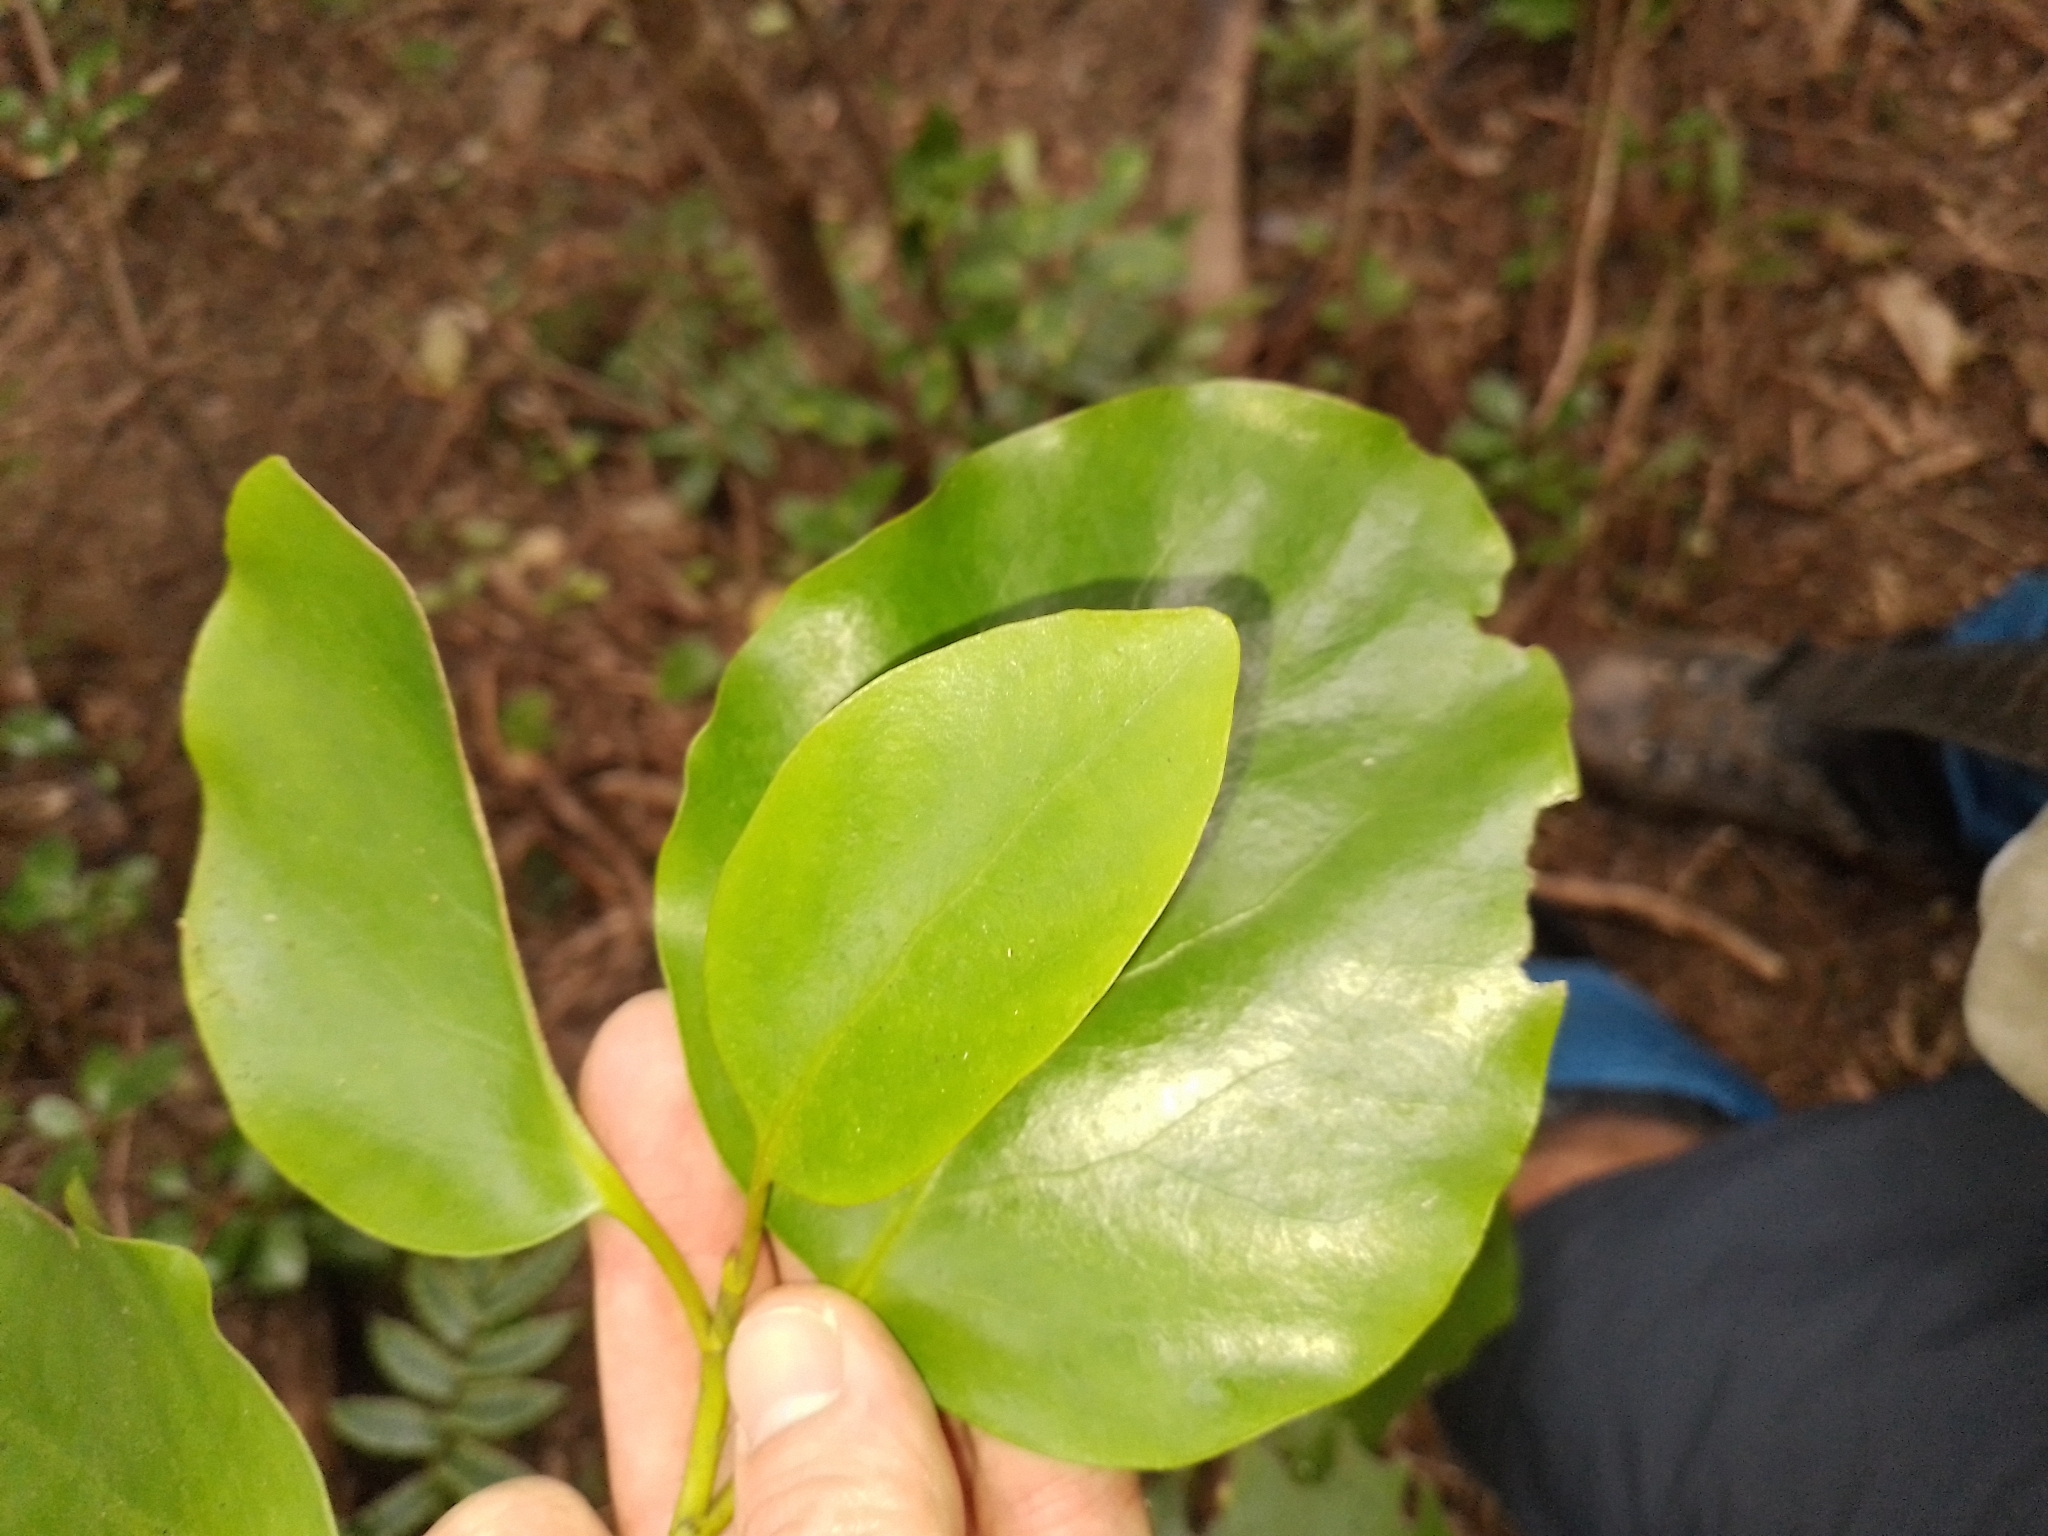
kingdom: Plantae
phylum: Tracheophyta
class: Magnoliopsida
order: Apiales
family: Griseliniaceae
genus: Griselinia
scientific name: Griselinia littoralis
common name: New zealand broadleaf
